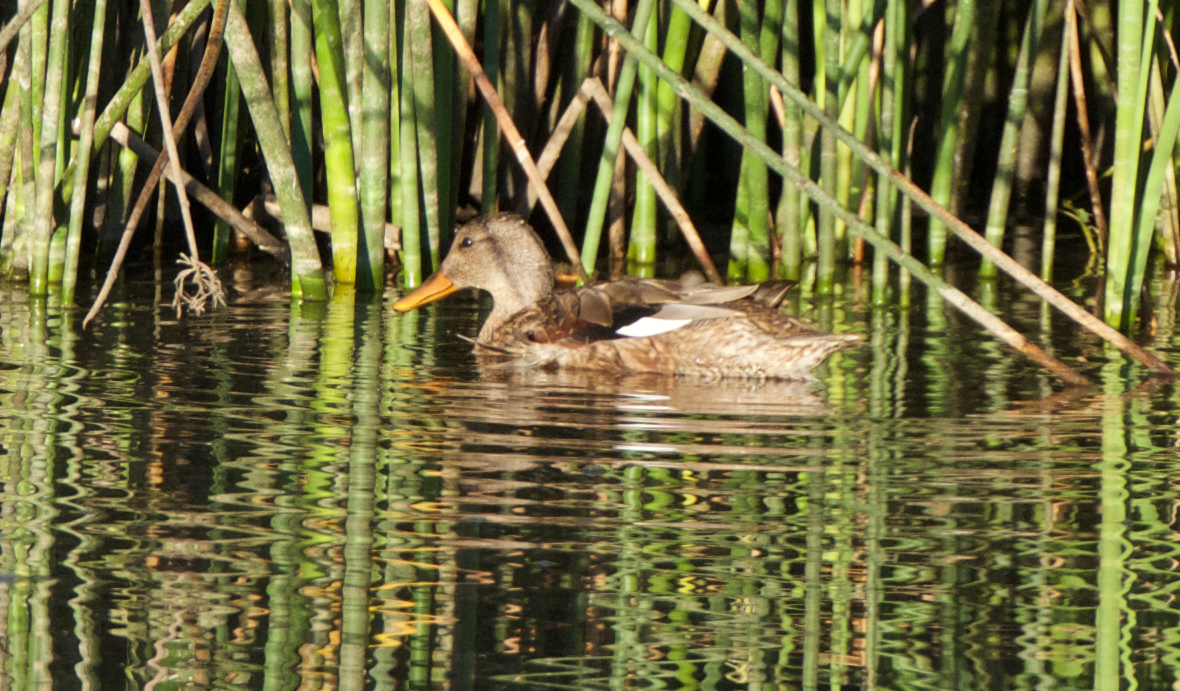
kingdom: Animalia
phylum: Chordata
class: Aves
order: Anseriformes
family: Anatidae
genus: Mareca
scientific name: Mareca strepera
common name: Gadwall
